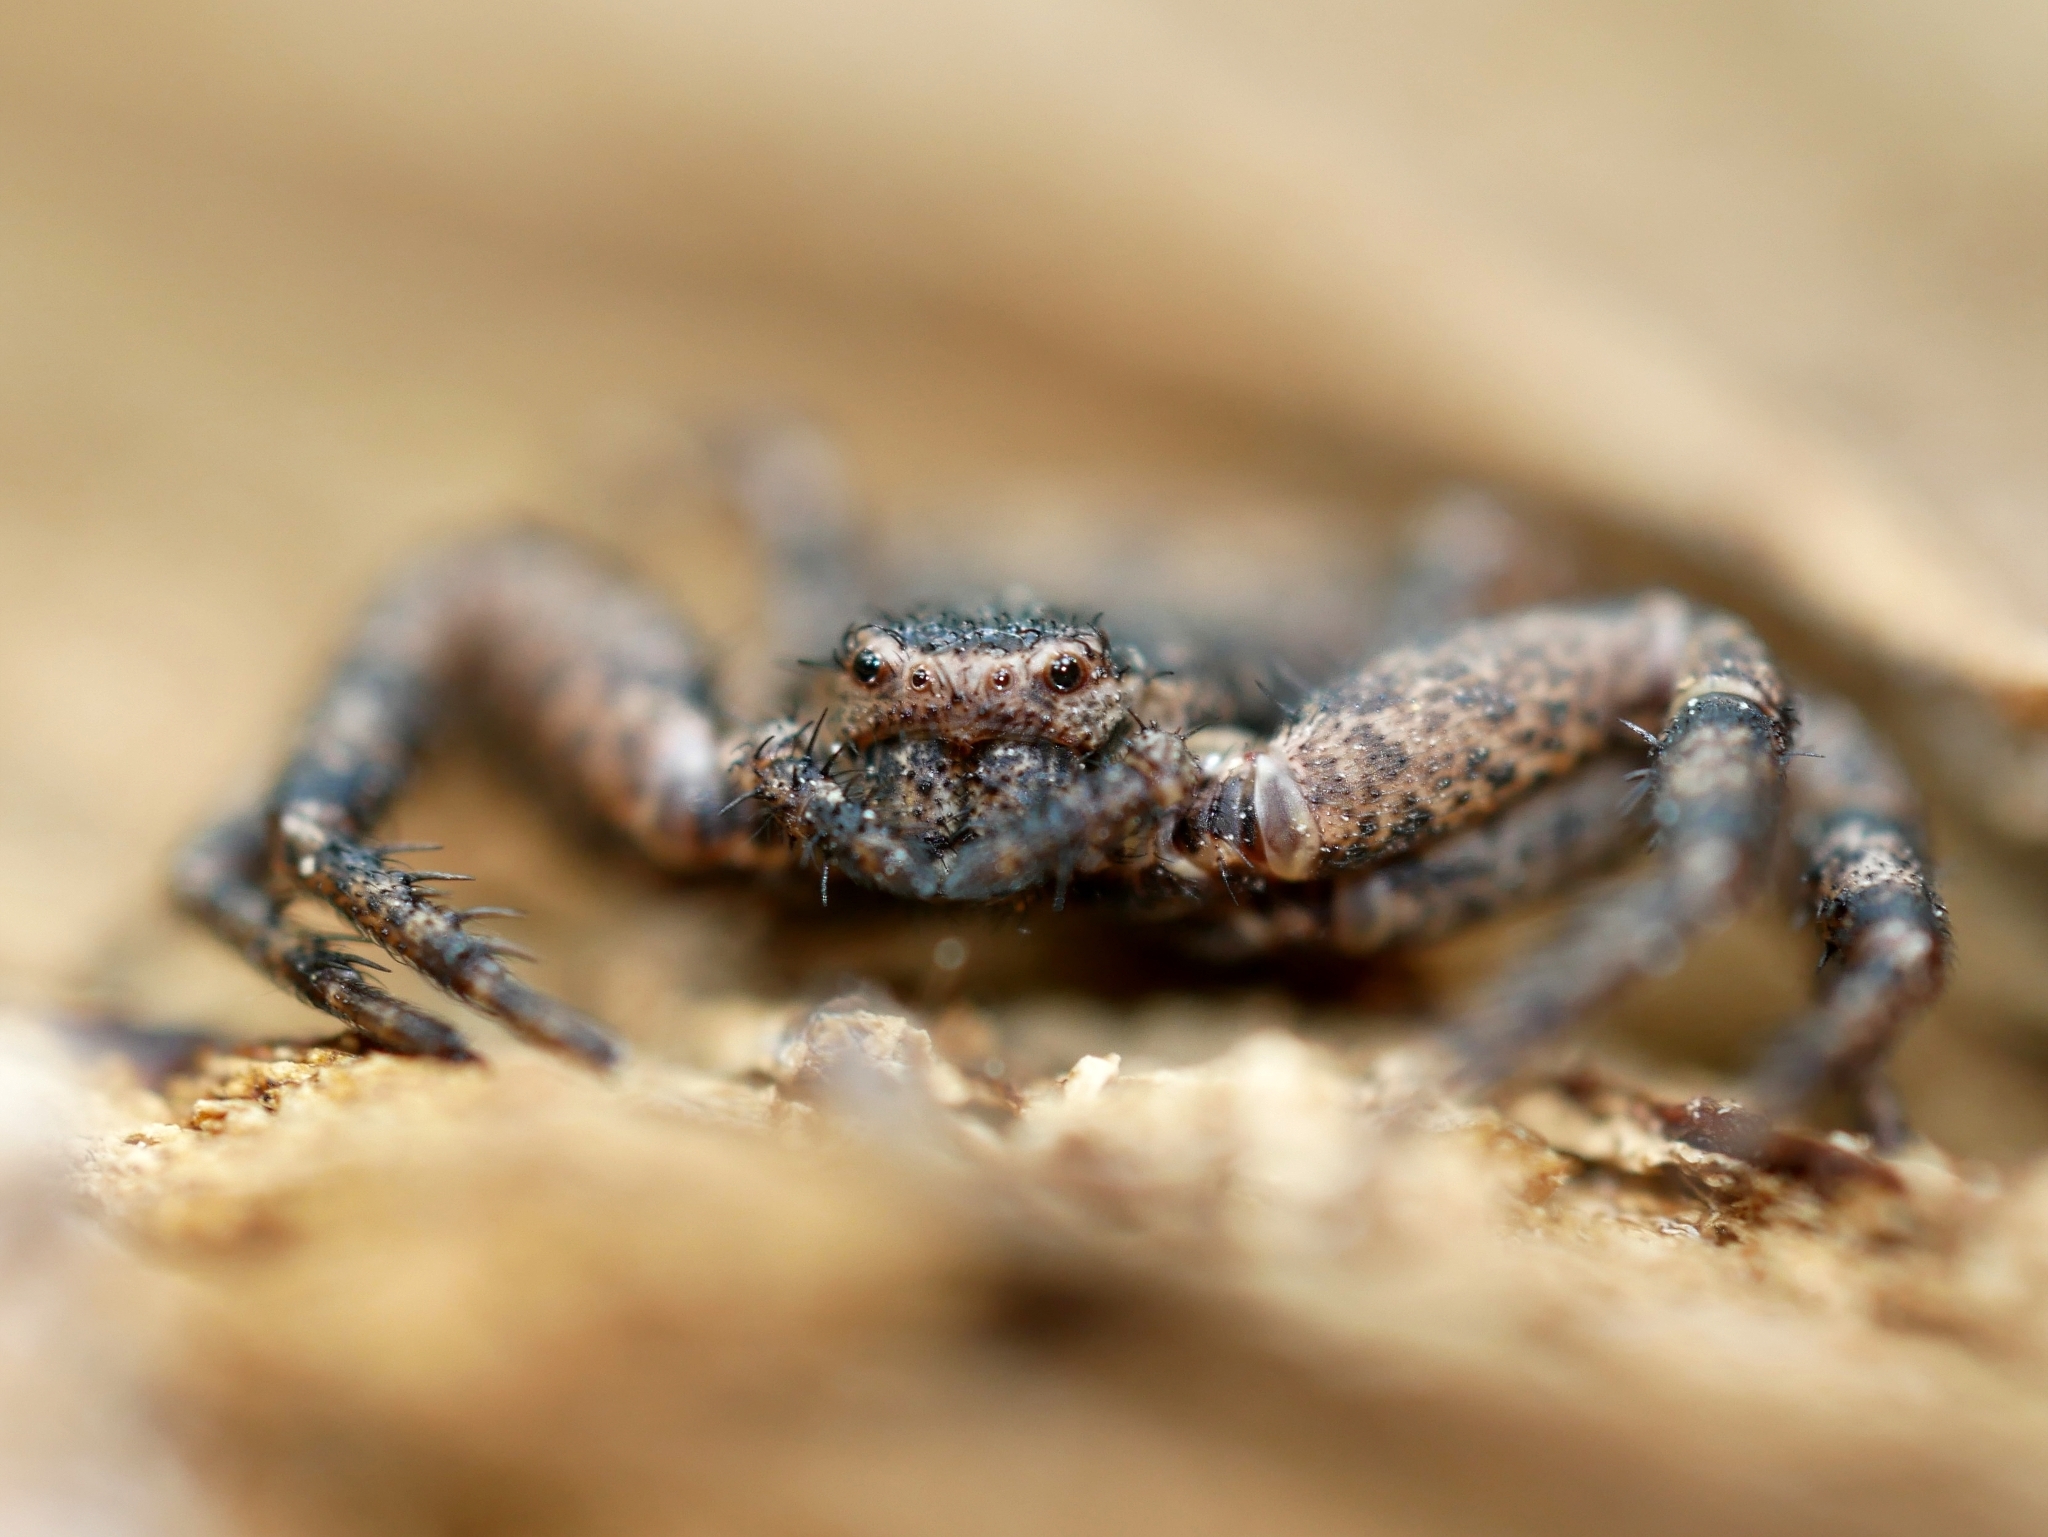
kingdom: Animalia
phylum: Arthropoda
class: Arachnida
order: Araneae
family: Thomisidae
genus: Bassaniana
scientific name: Bassaniana utahensis
